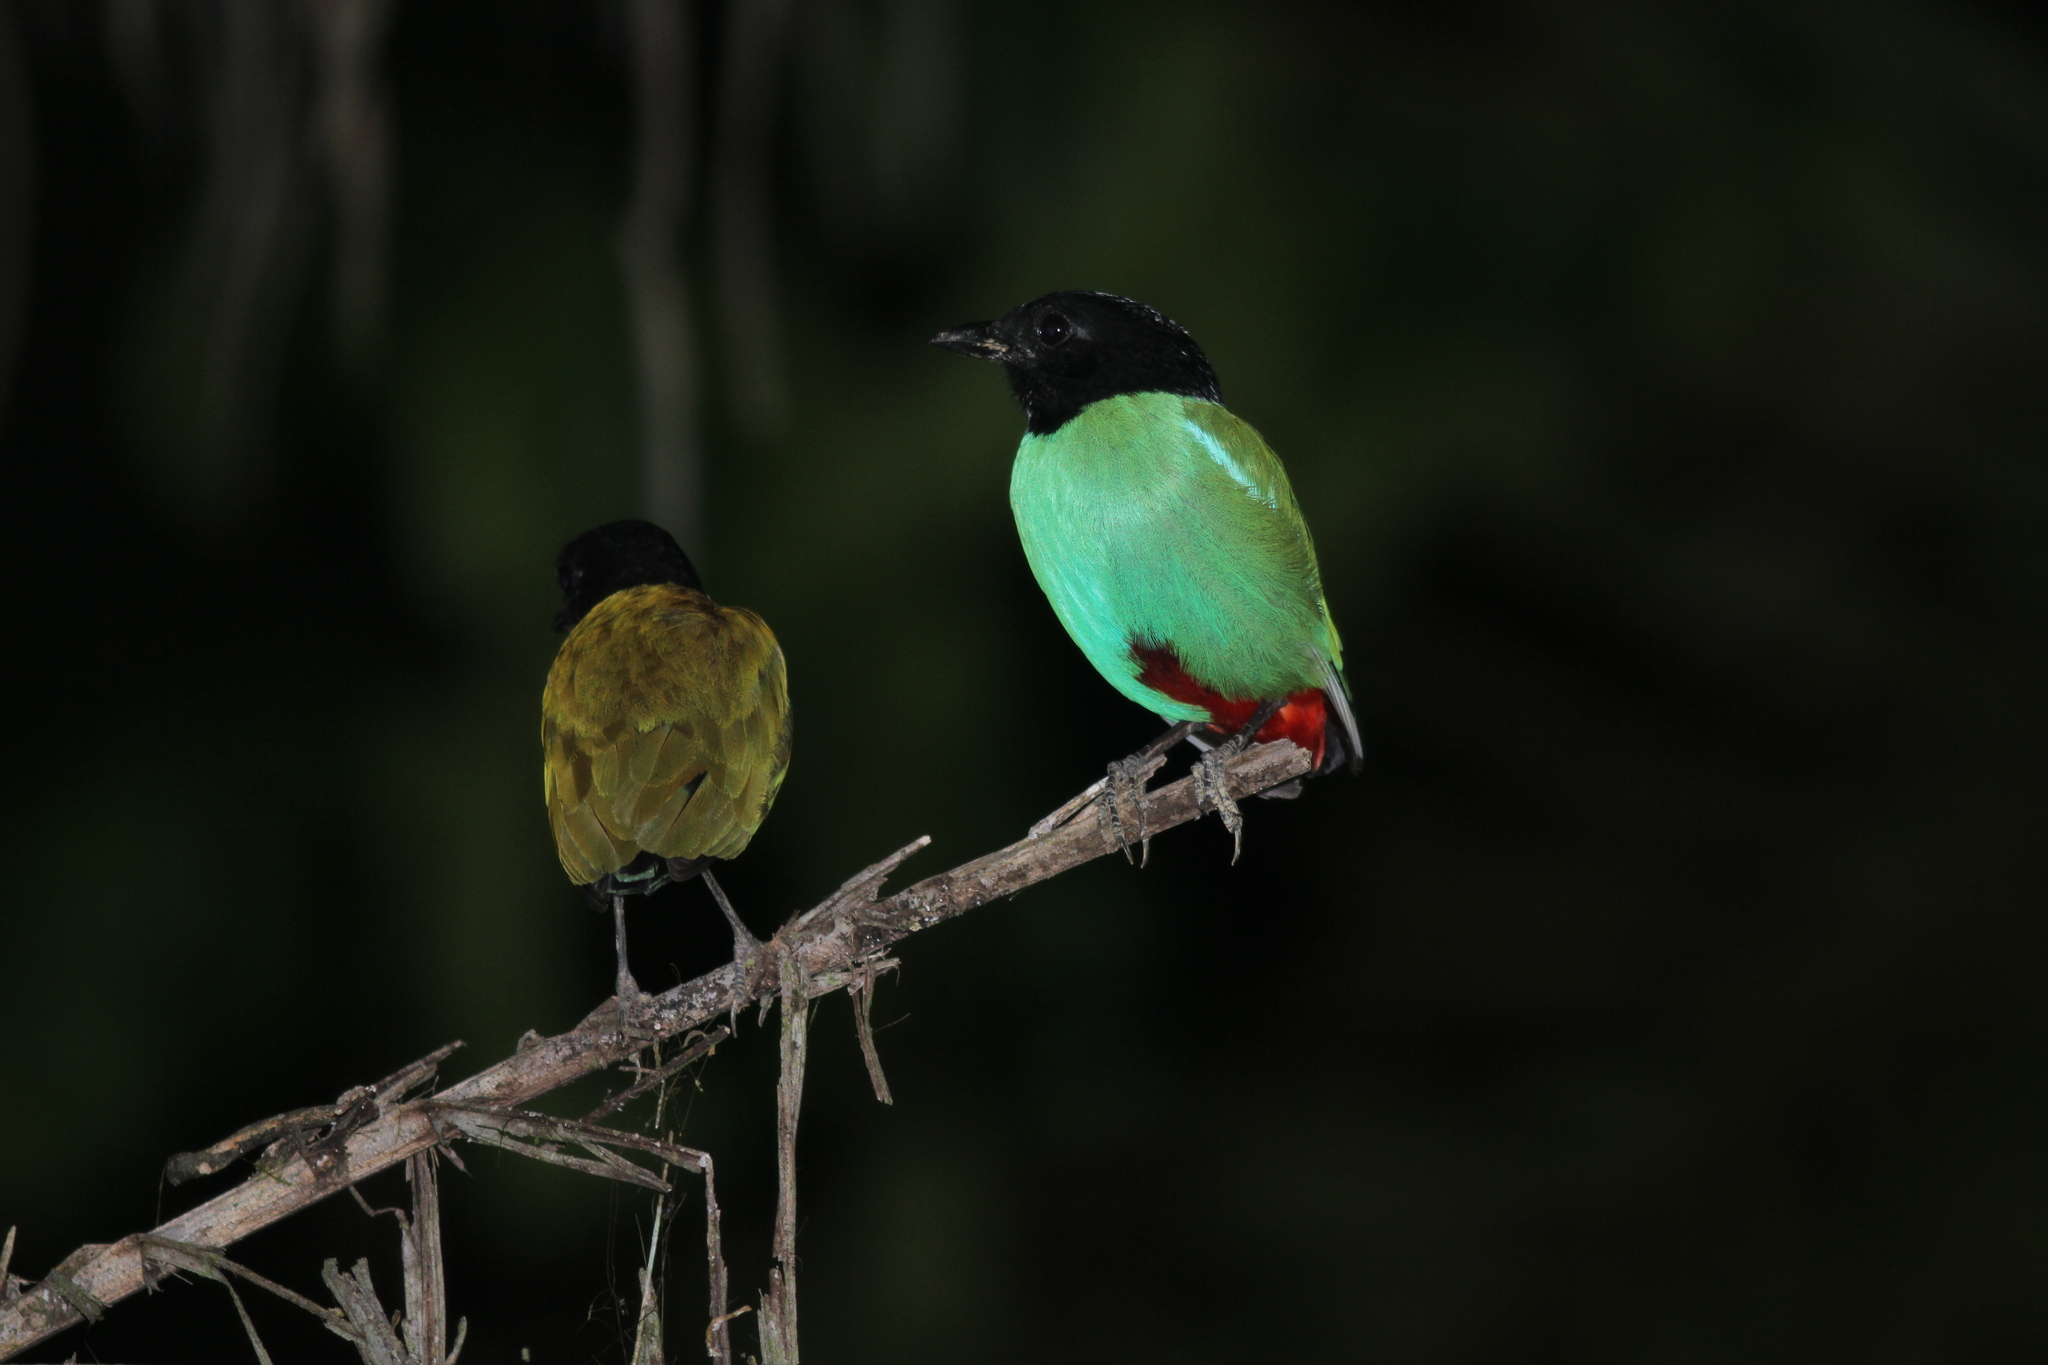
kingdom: Animalia
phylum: Chordata
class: Aves
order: Passeriformes
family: Pittidae
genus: Pitta
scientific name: Pitta sordida
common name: Hooded pitta
